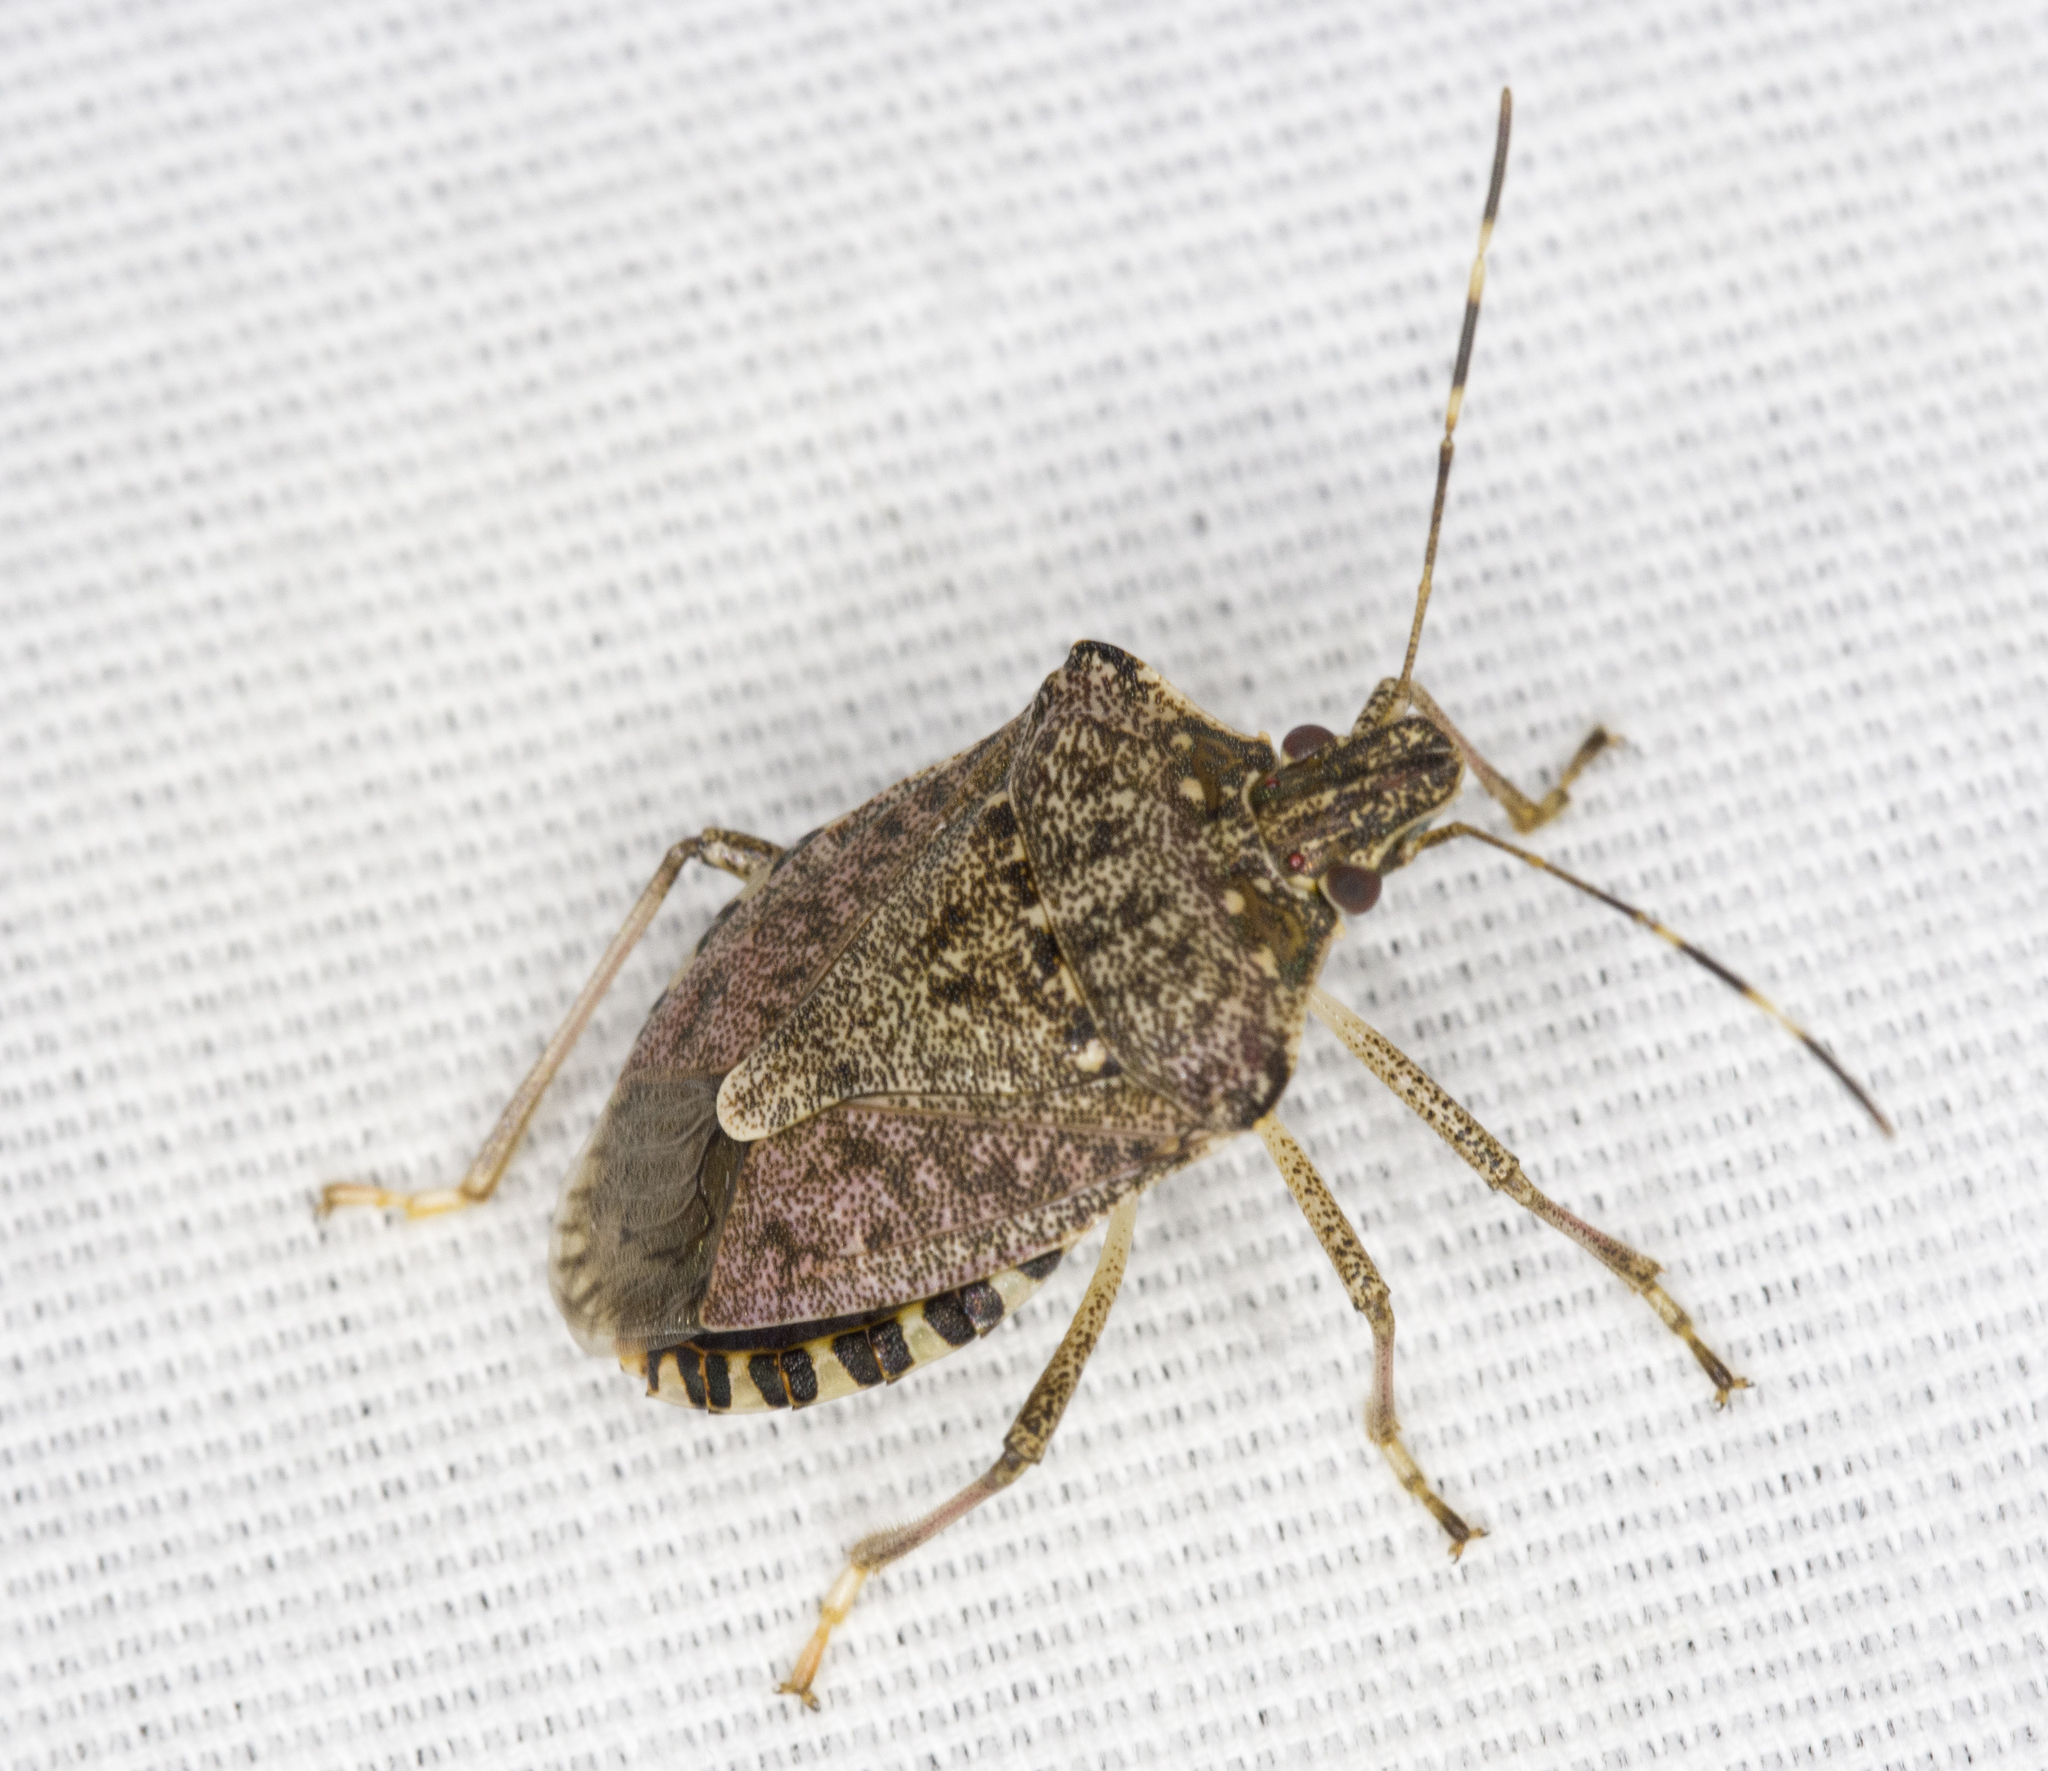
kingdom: Animalia
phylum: Arthropoda
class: Insecta
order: Hemiptera
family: Pentatomidae
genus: Halyomorpha
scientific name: Halyomorpha halys
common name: Brown marmorated stink bug
